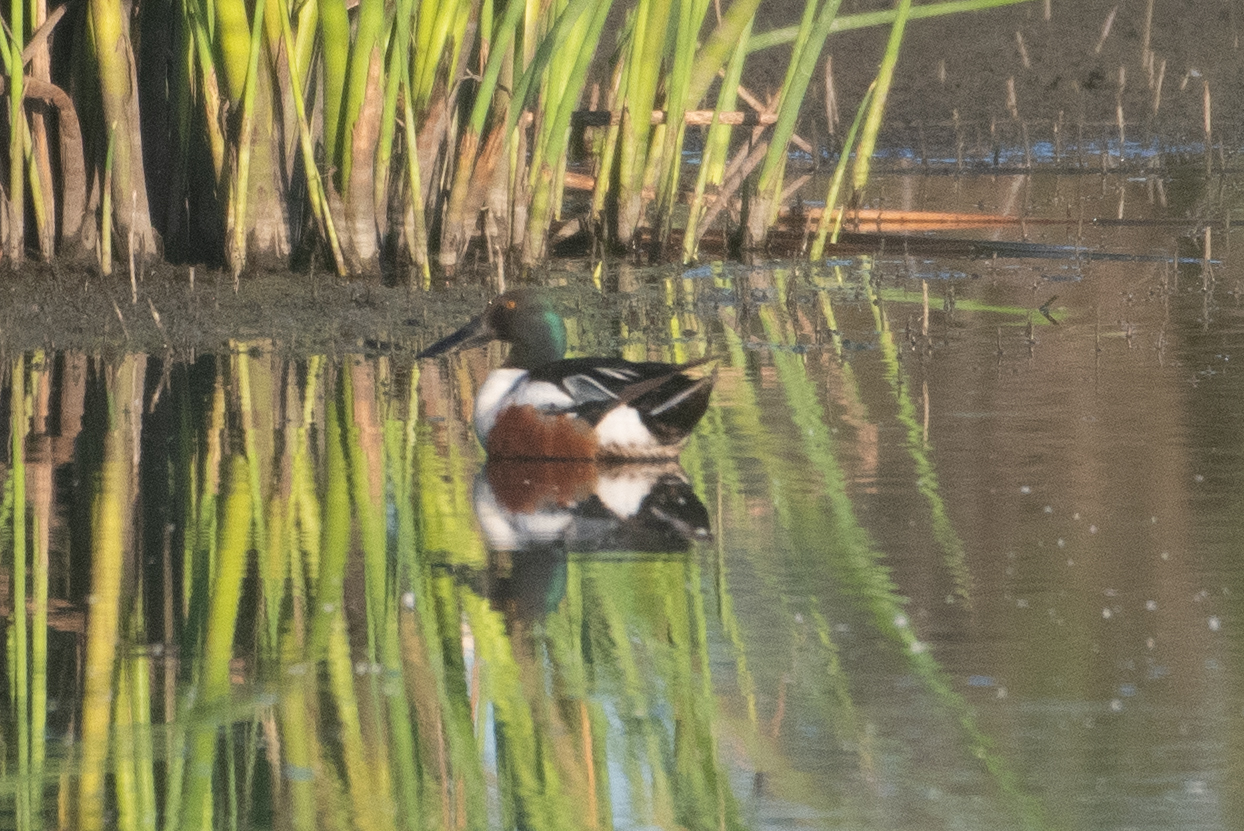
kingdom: Animalia
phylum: Chordata
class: Aves
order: Anseriformes
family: Anatidae
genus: Spatula
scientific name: Spatula clypeata
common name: Northern shoveler
